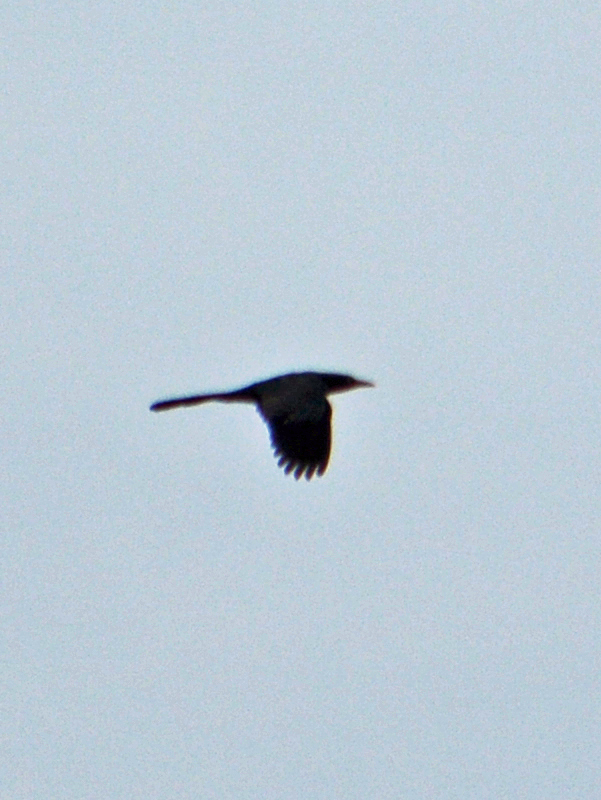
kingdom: Animalia
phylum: Chordata
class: Aves
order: Passeriformes
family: Icteridae
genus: Quiscalus
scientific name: Quiscalus mexicanus
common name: Great-tailed grackle
